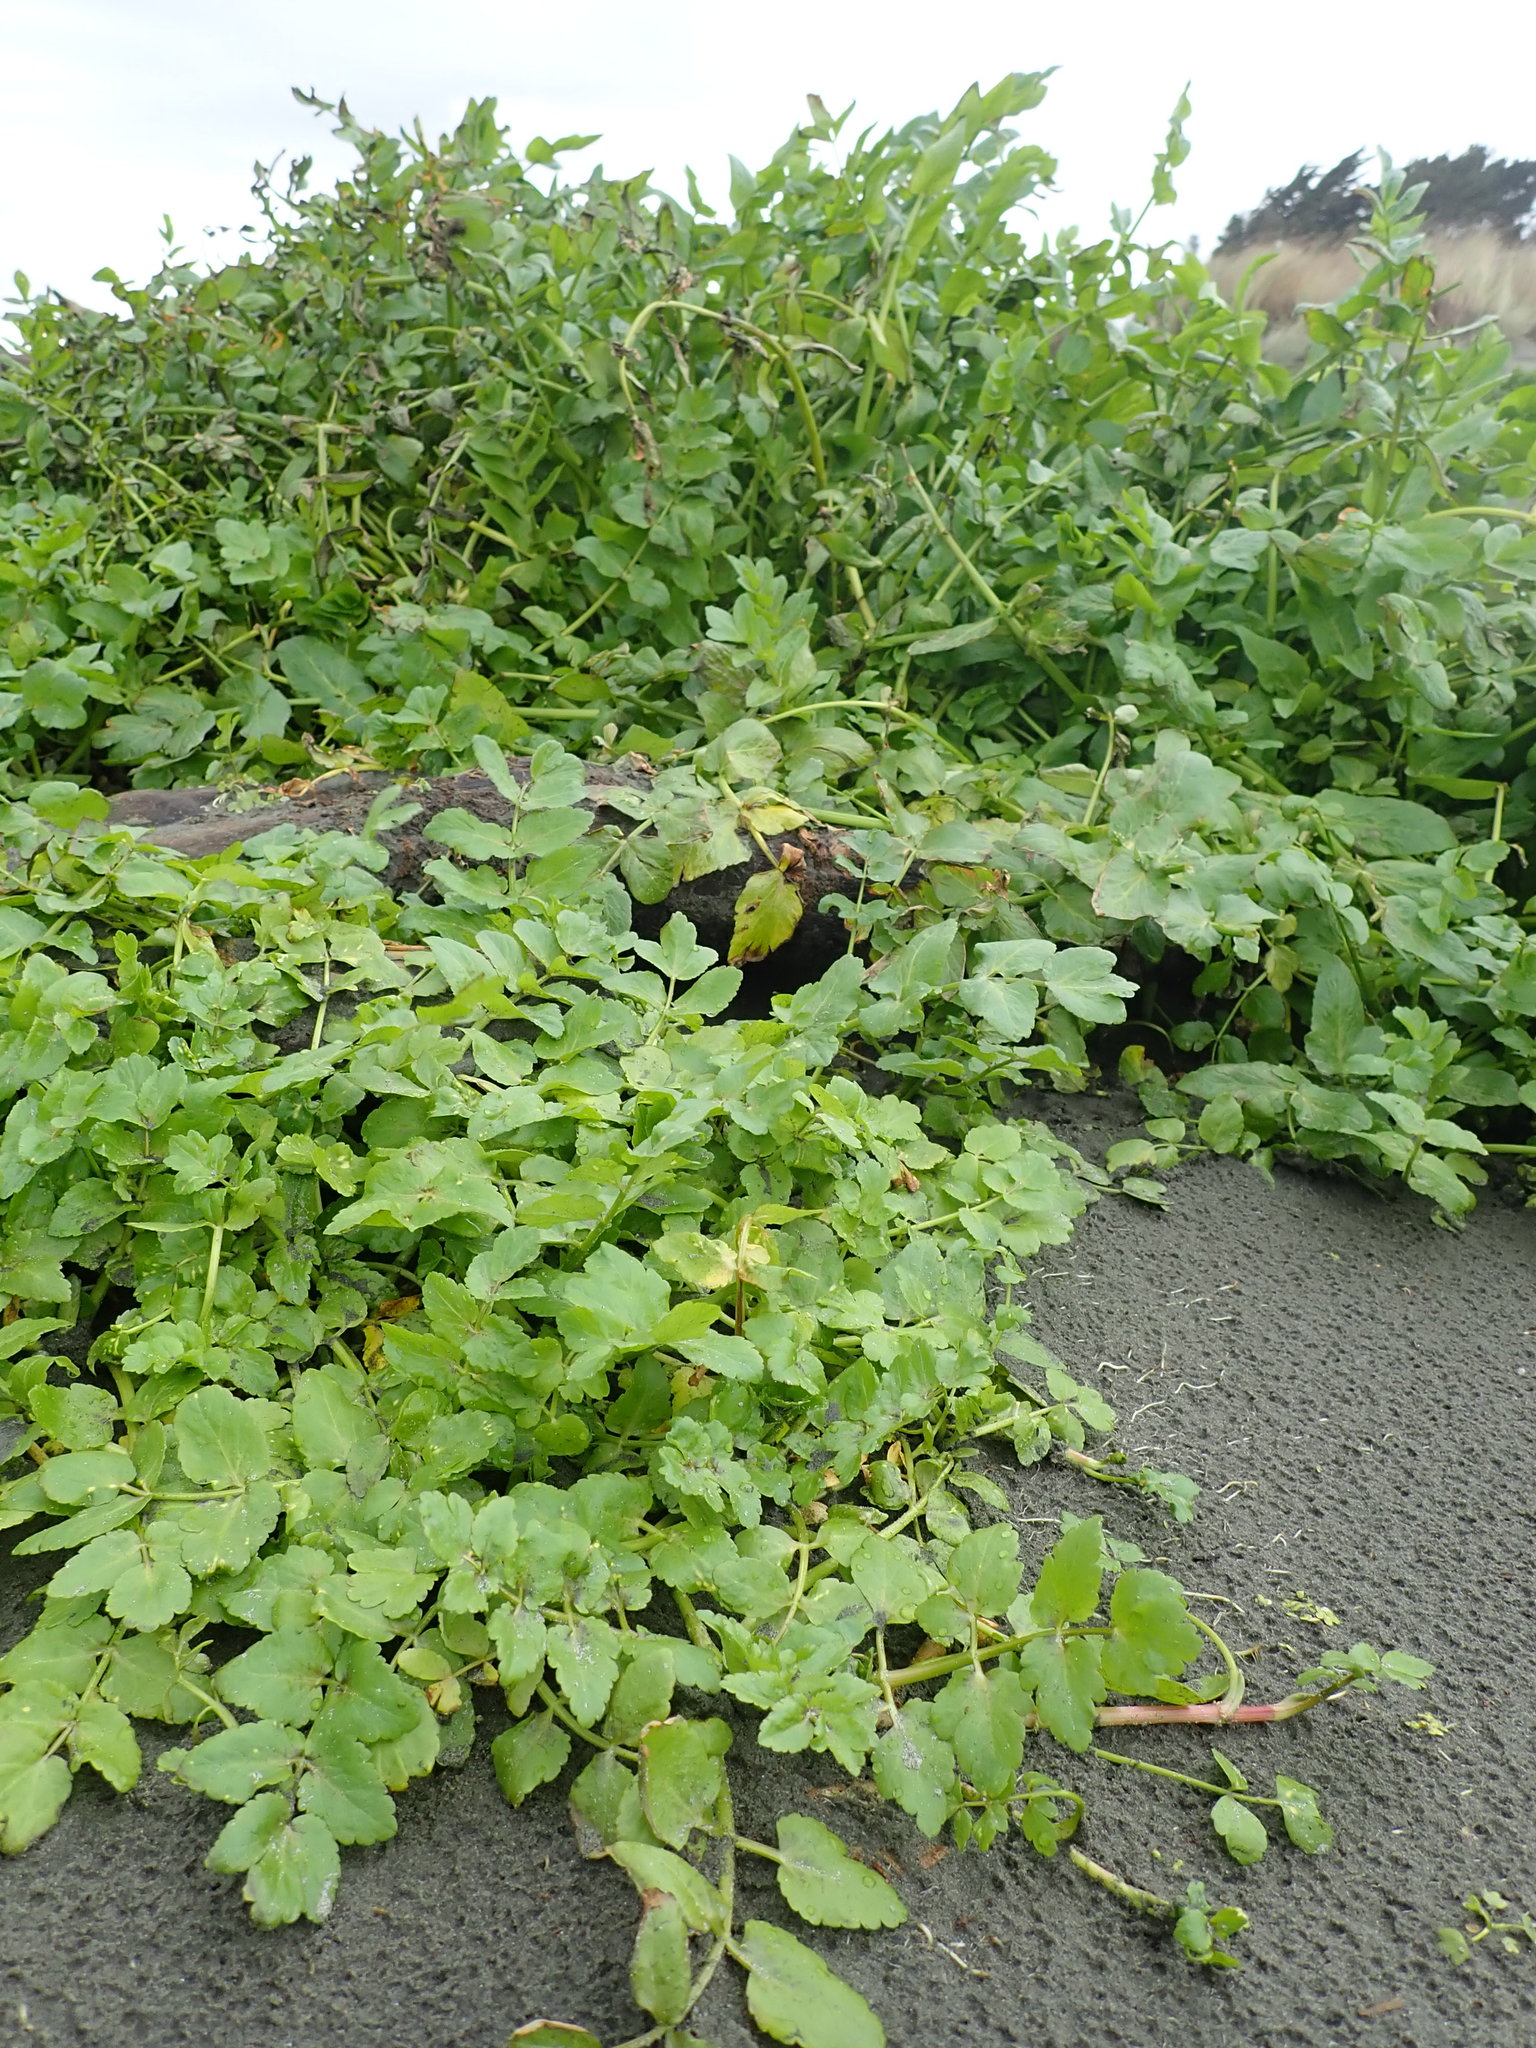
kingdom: Plantae
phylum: Tracheophyta
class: Magnoliopsida
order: Apiales
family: Apiaceae
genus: Helosciadium
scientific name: Helosciadium nodiflorum
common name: Fool's-watercress
